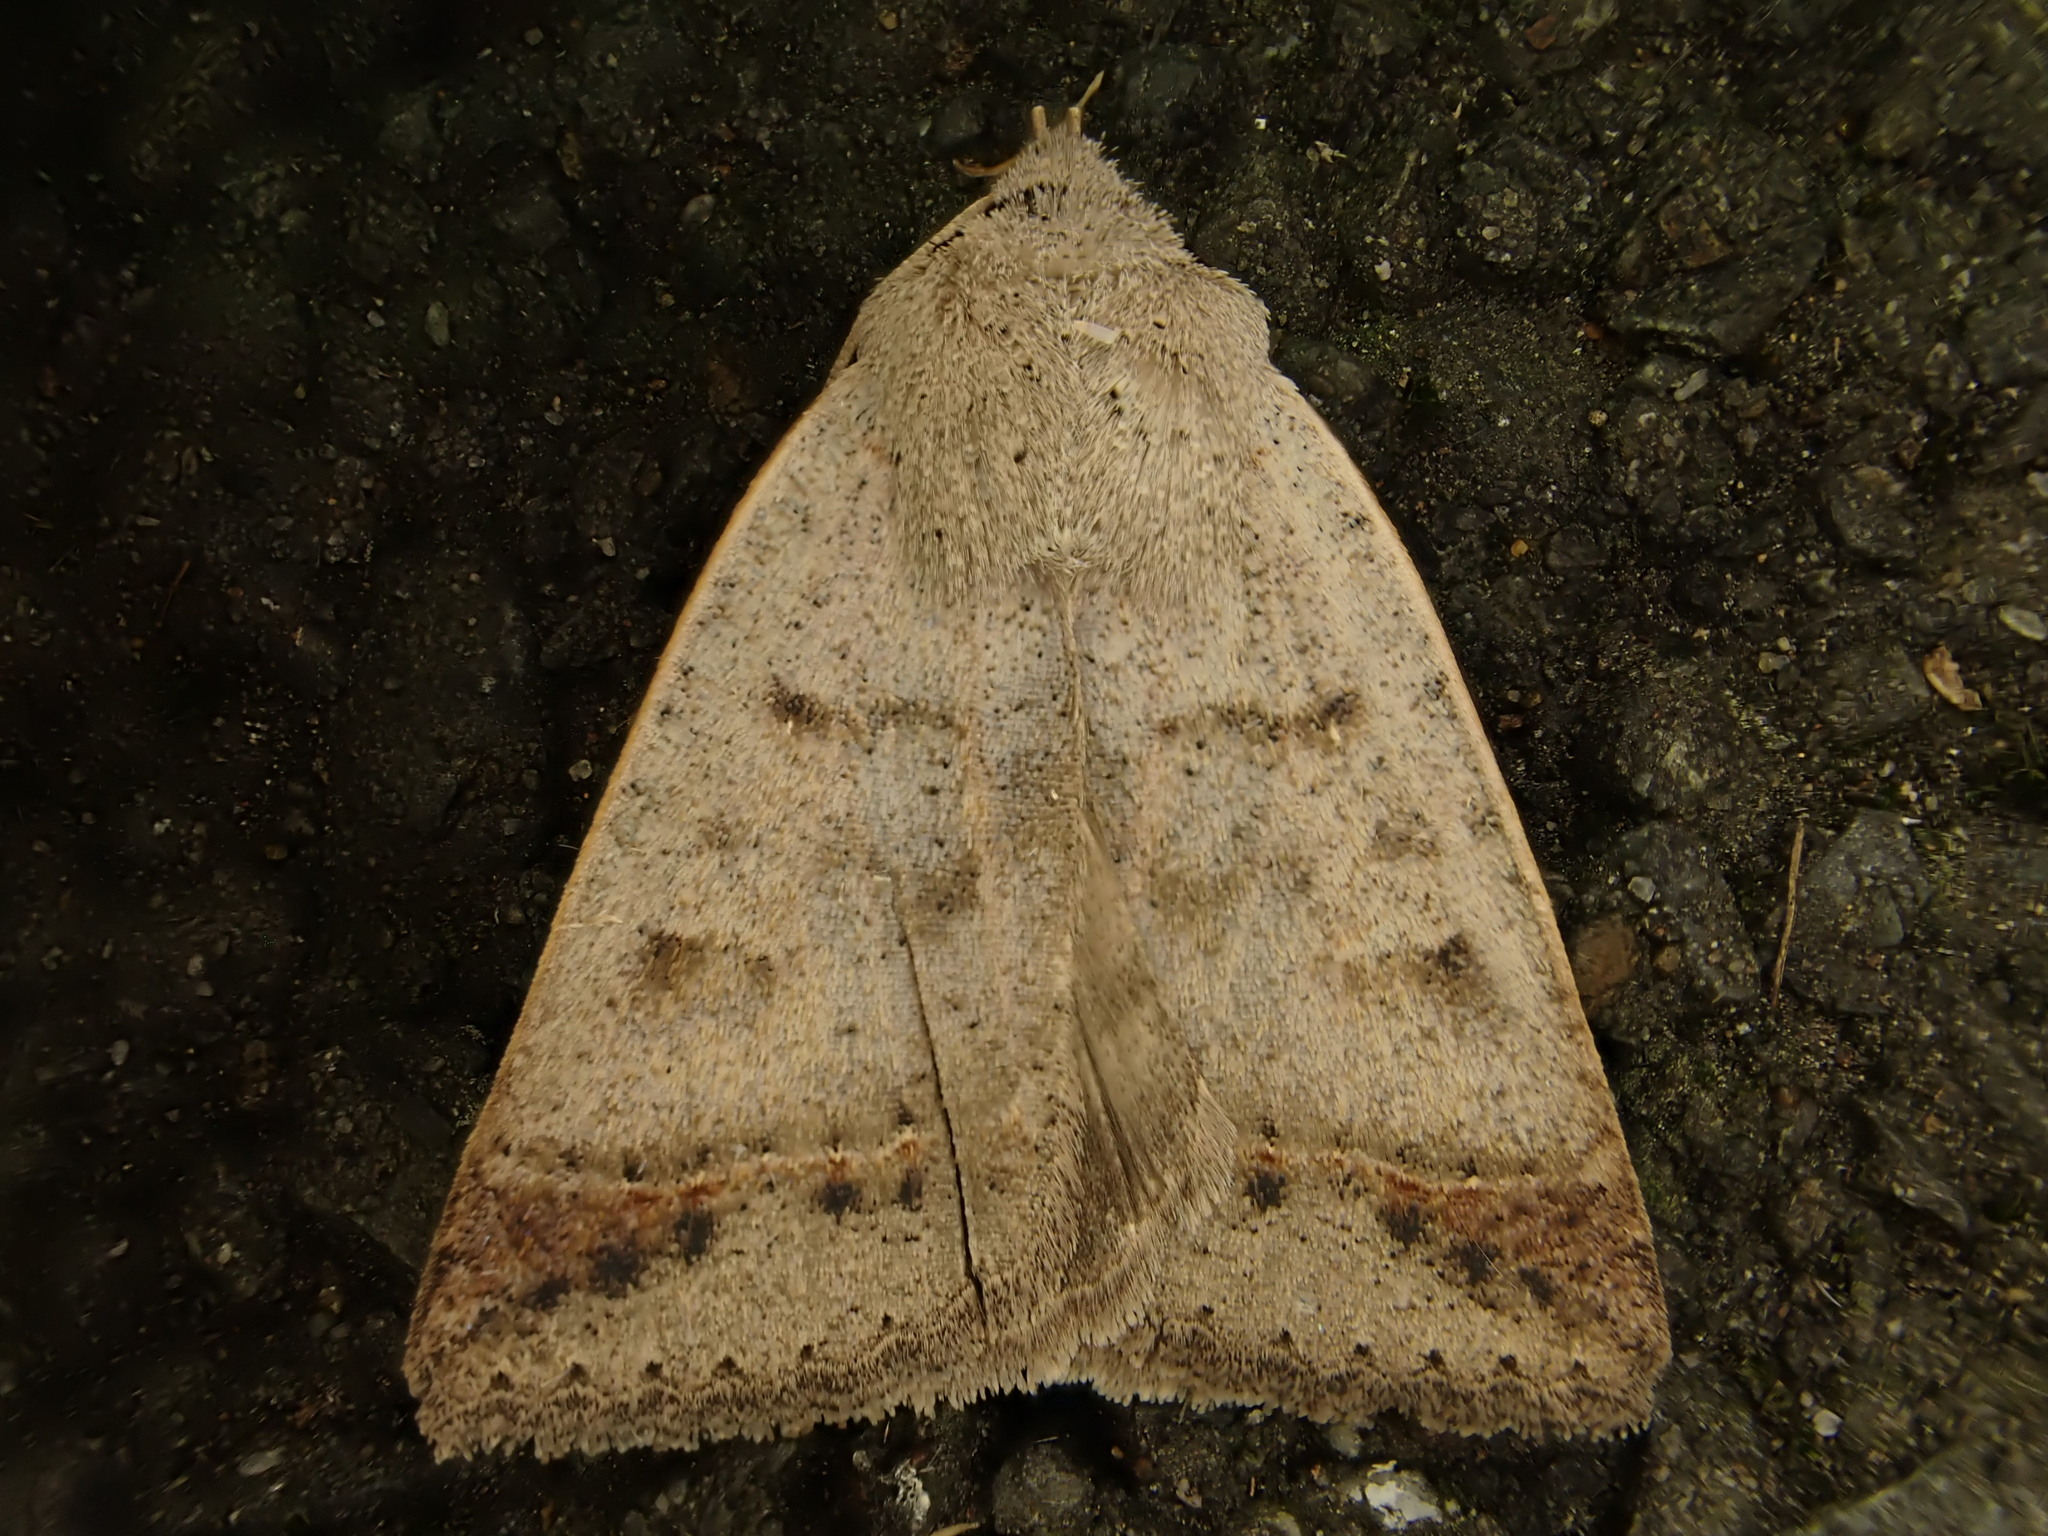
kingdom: Animalia
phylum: Arthropoda
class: Insecta
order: Lepidoptera
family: Erebidae
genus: Pantydia
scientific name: Pantydia sparsa
